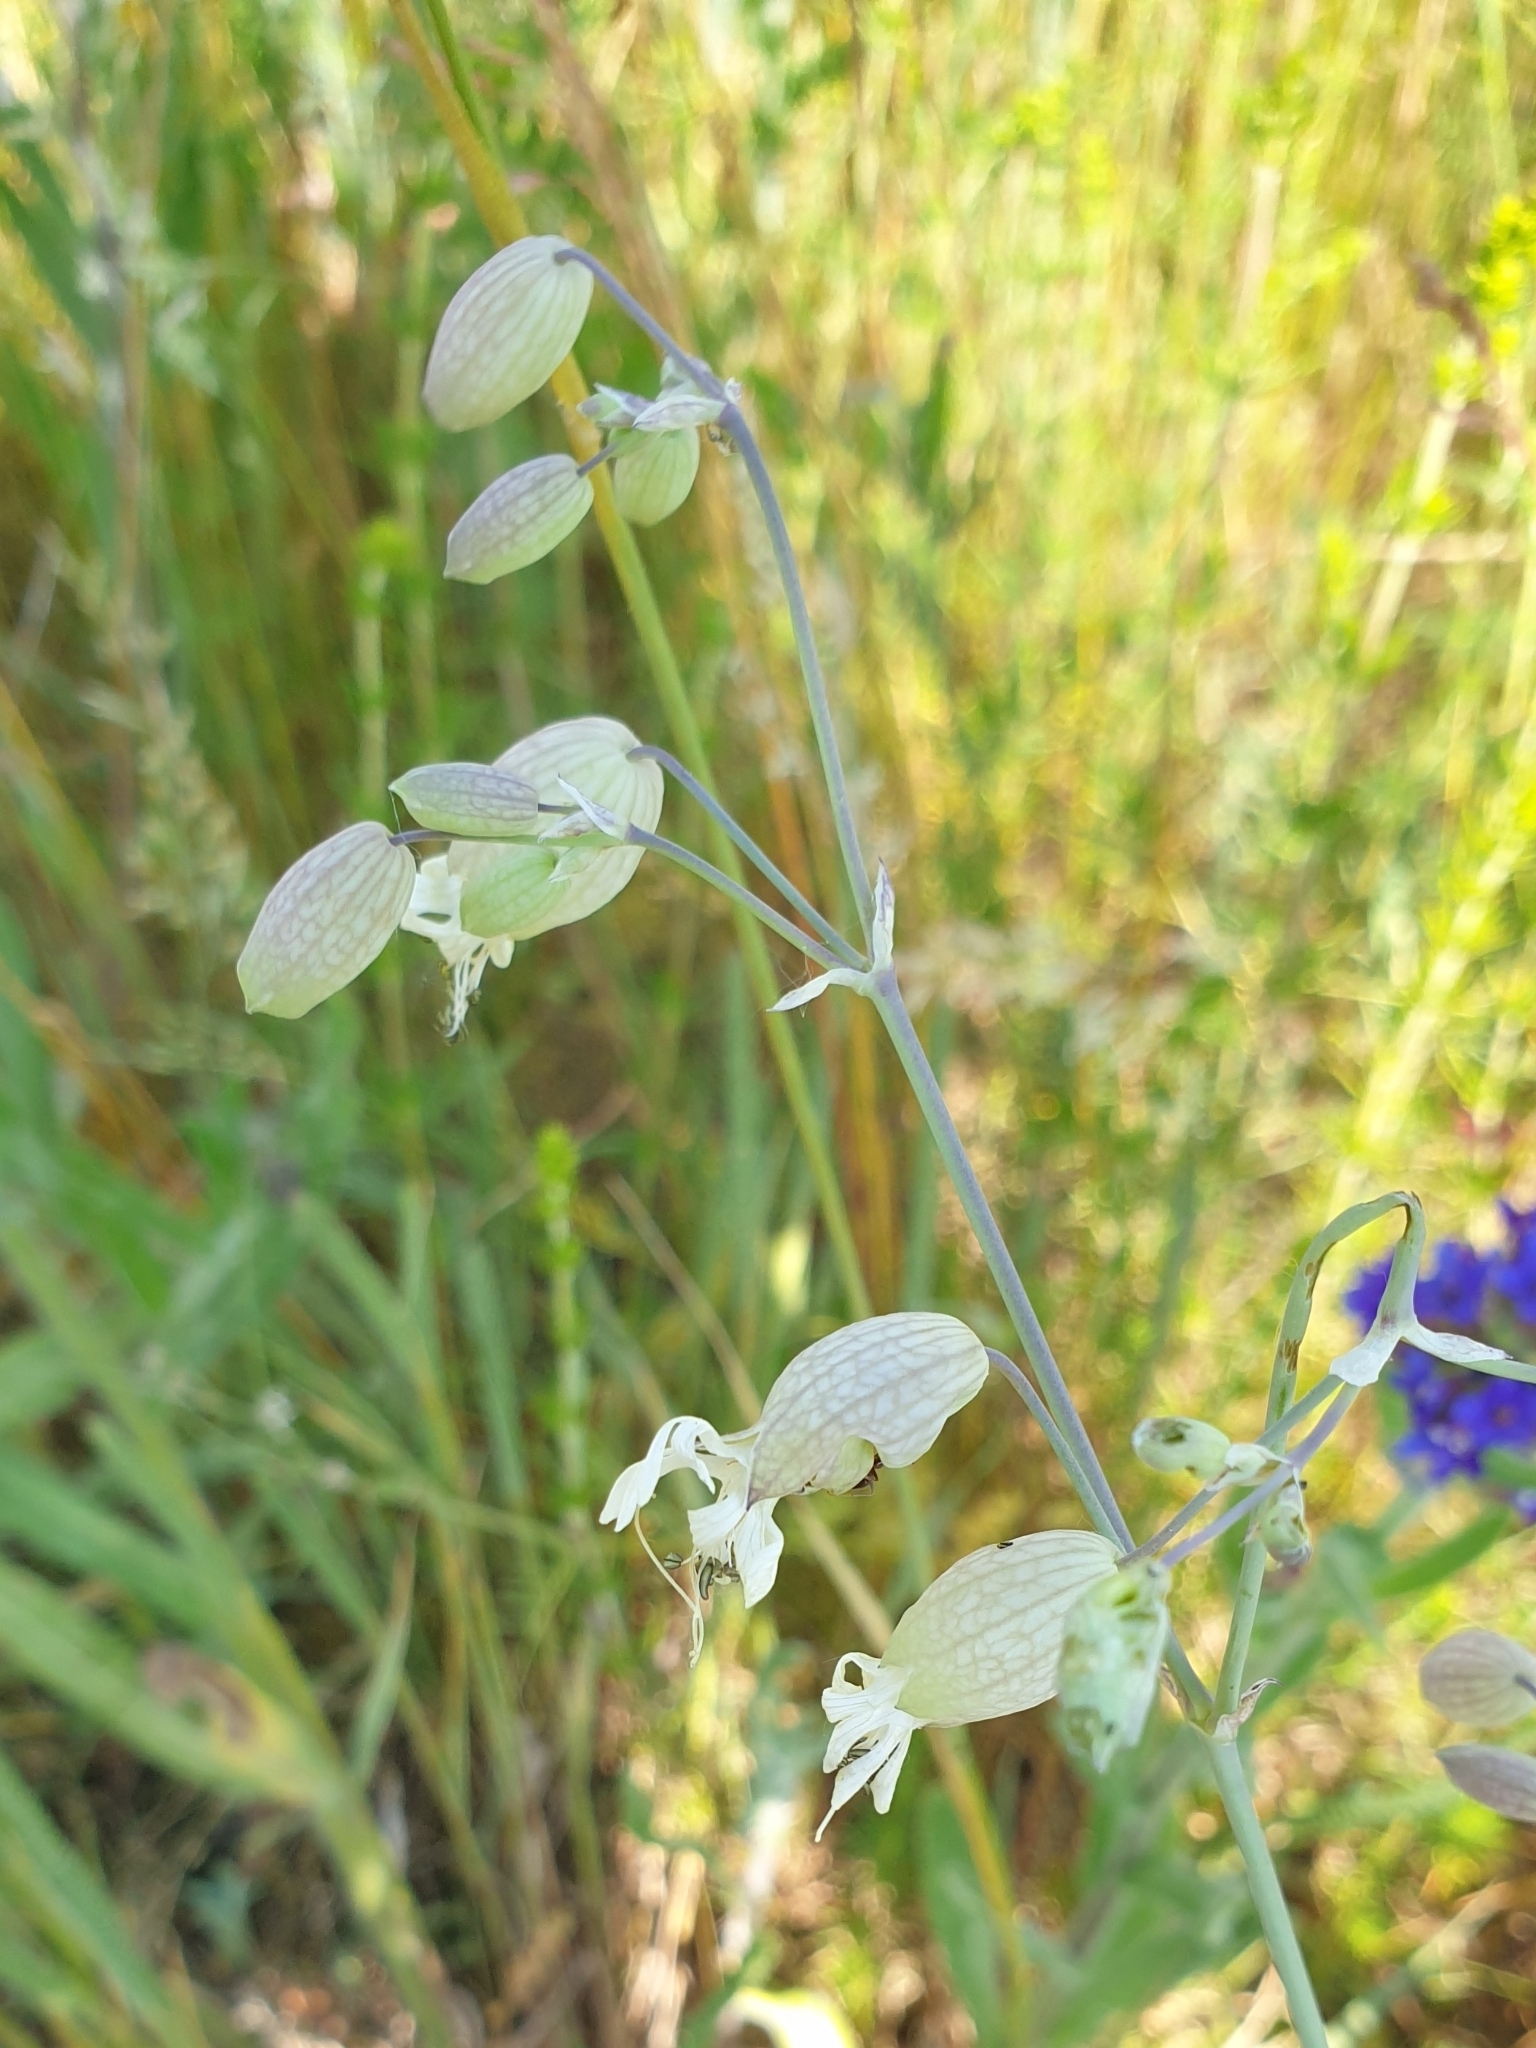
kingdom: Plantae
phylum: Tracheophyta
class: Magnoliopsida
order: Caryophyllales
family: Caryophyllaceae
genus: Silene
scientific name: Silene vulgaris
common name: Bladder campion
